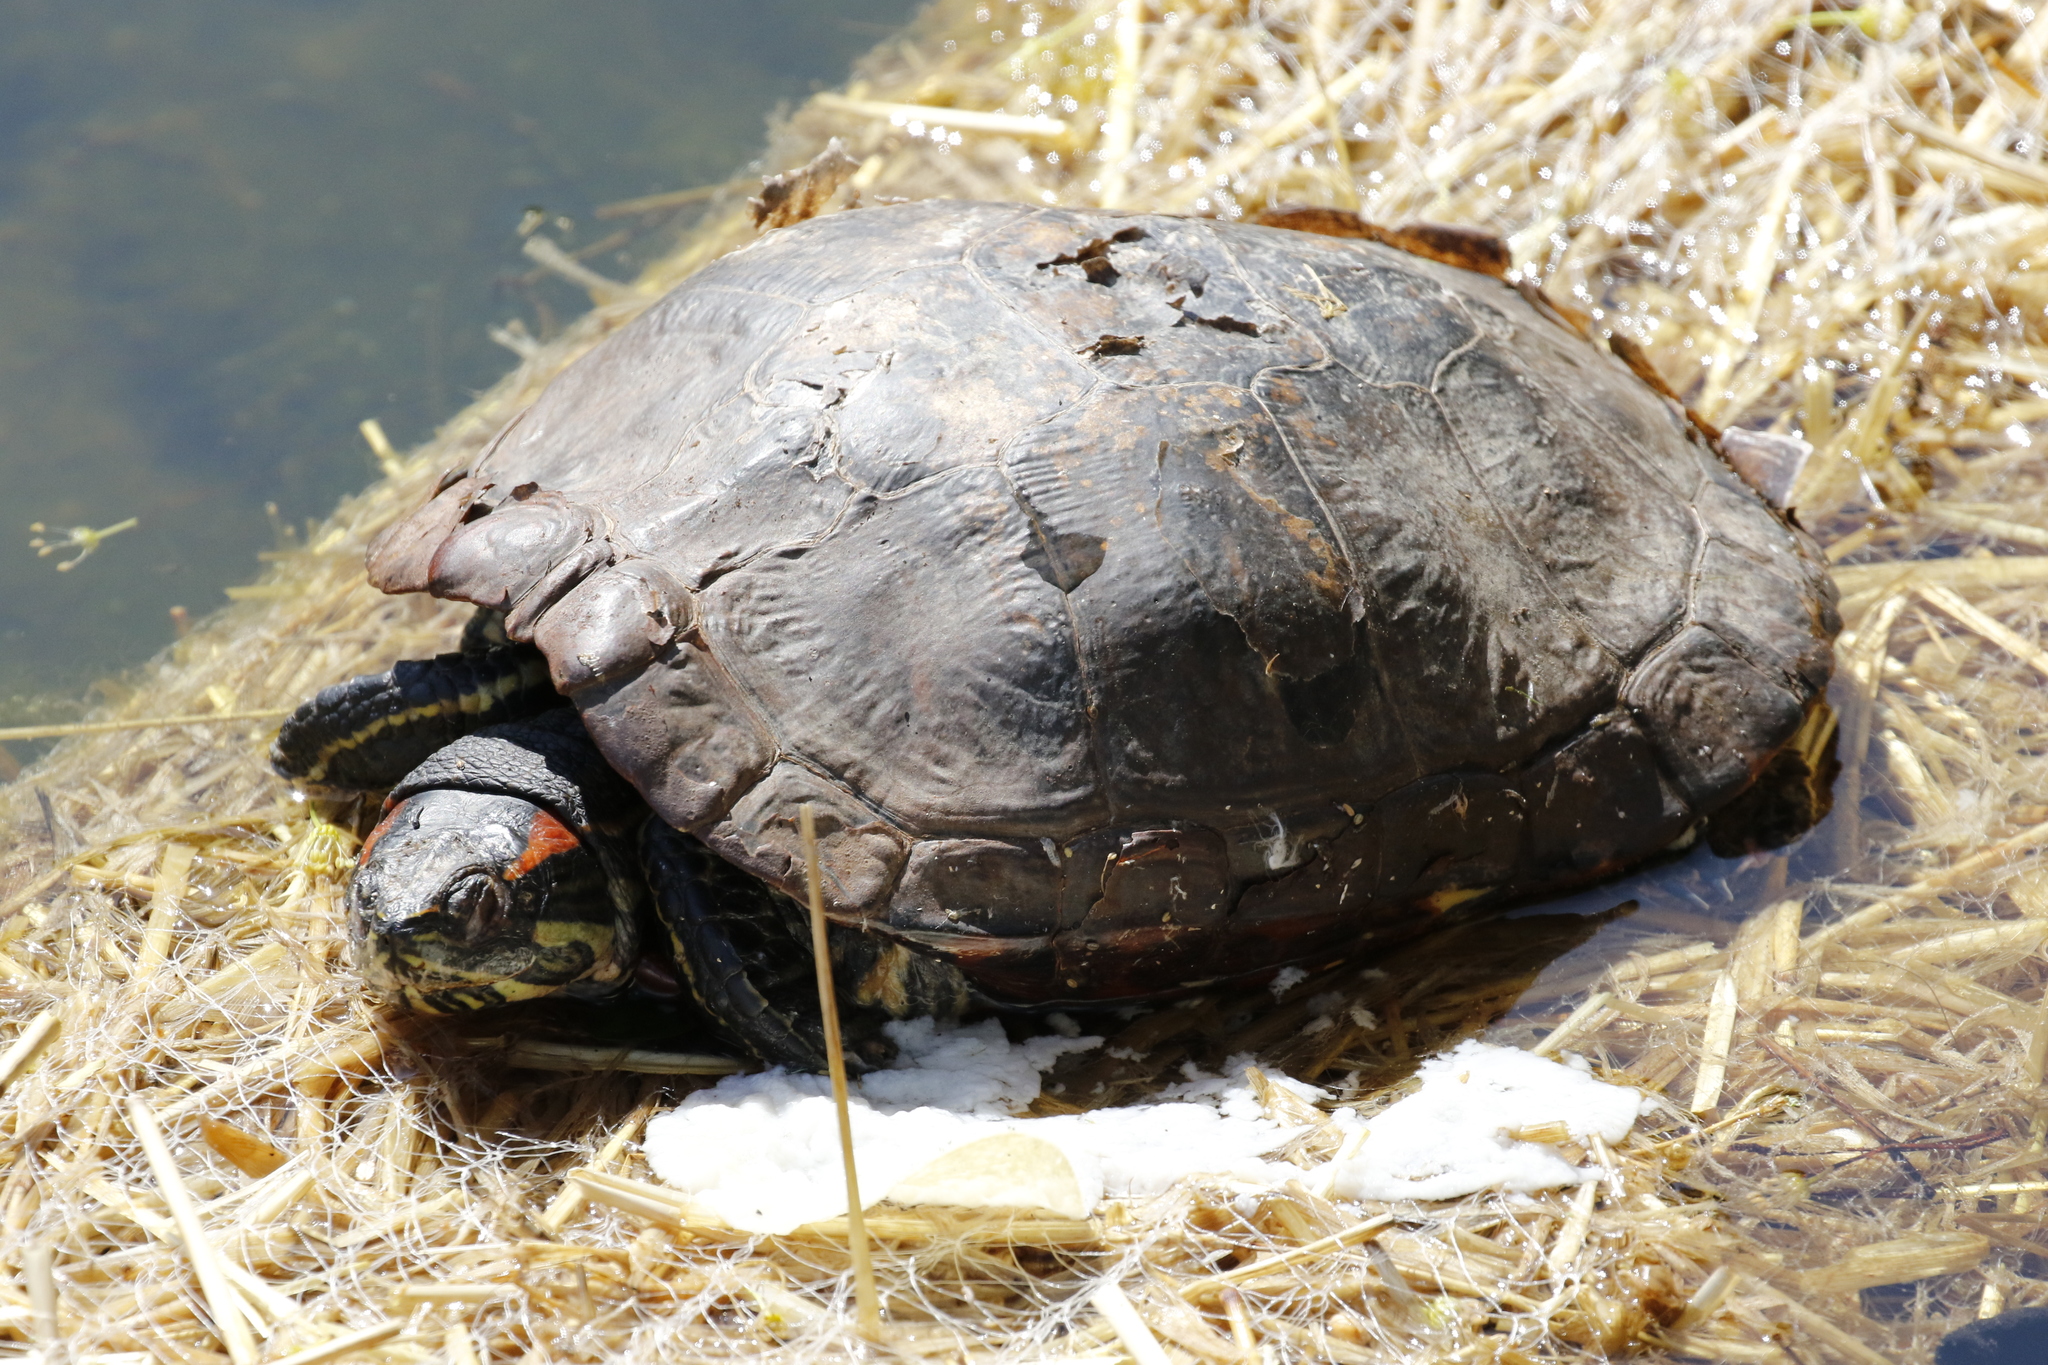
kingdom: Animalia
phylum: Chordata
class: Testudines
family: Emydidae
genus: Trachemys
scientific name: Trachemys scripta
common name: Slider
